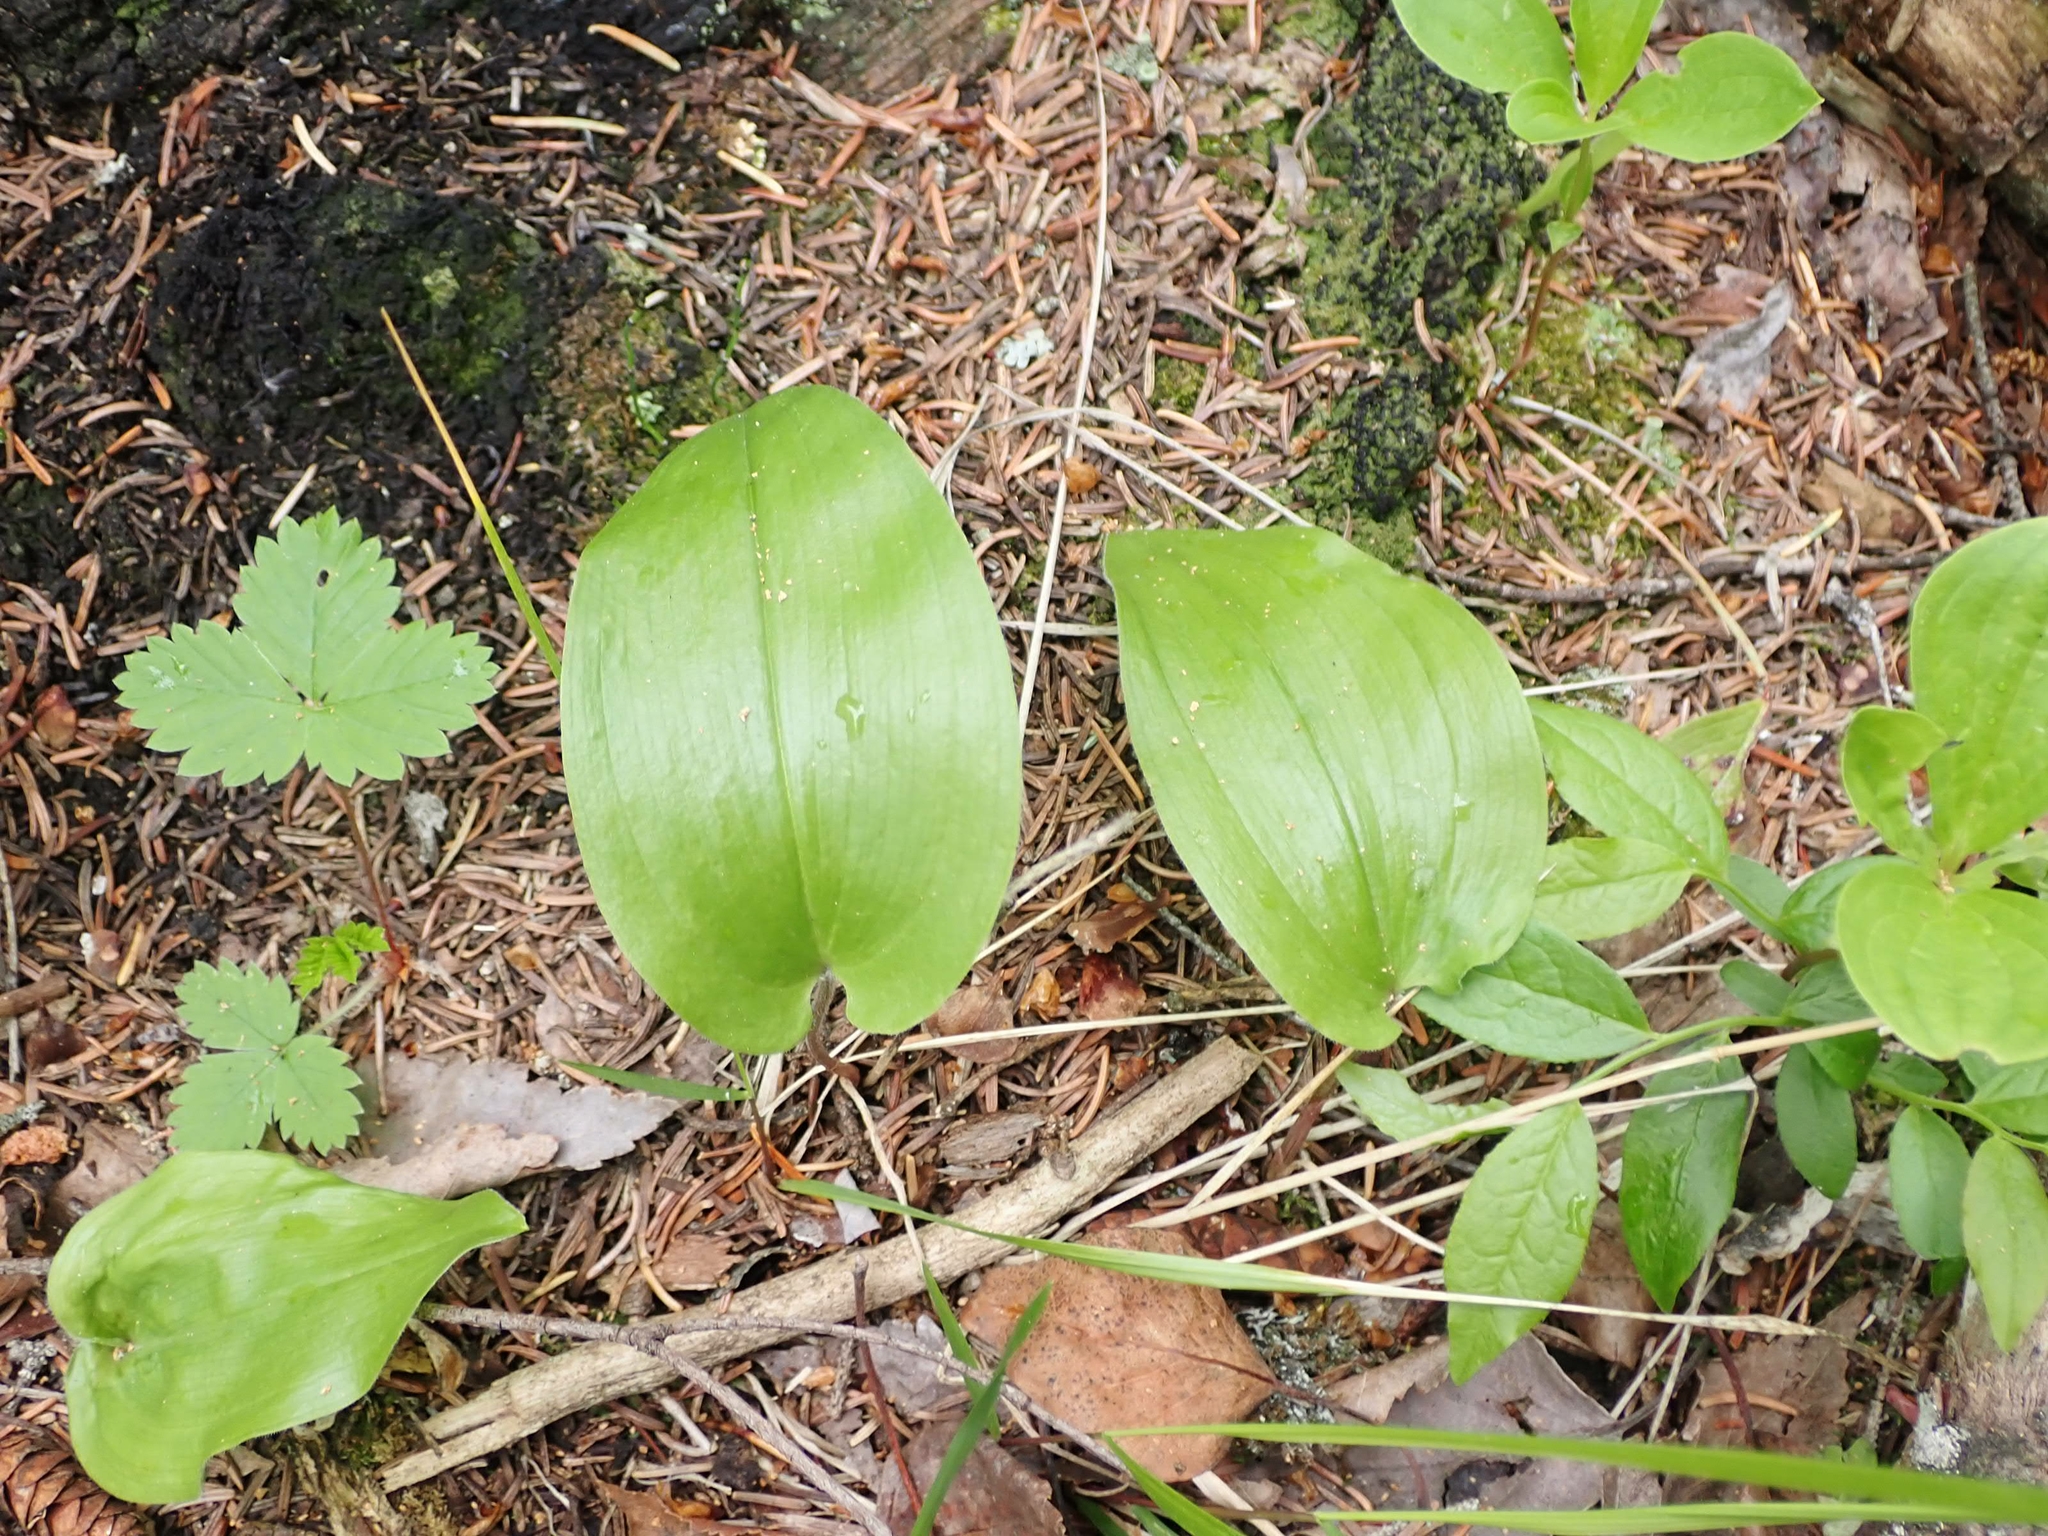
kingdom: Plantae
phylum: Tracheophyta
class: Liliopsida
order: Asparagales
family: Asparagaceae
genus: Maianthemum
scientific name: Maianthemum canadense
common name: False lily-of-the-valley
